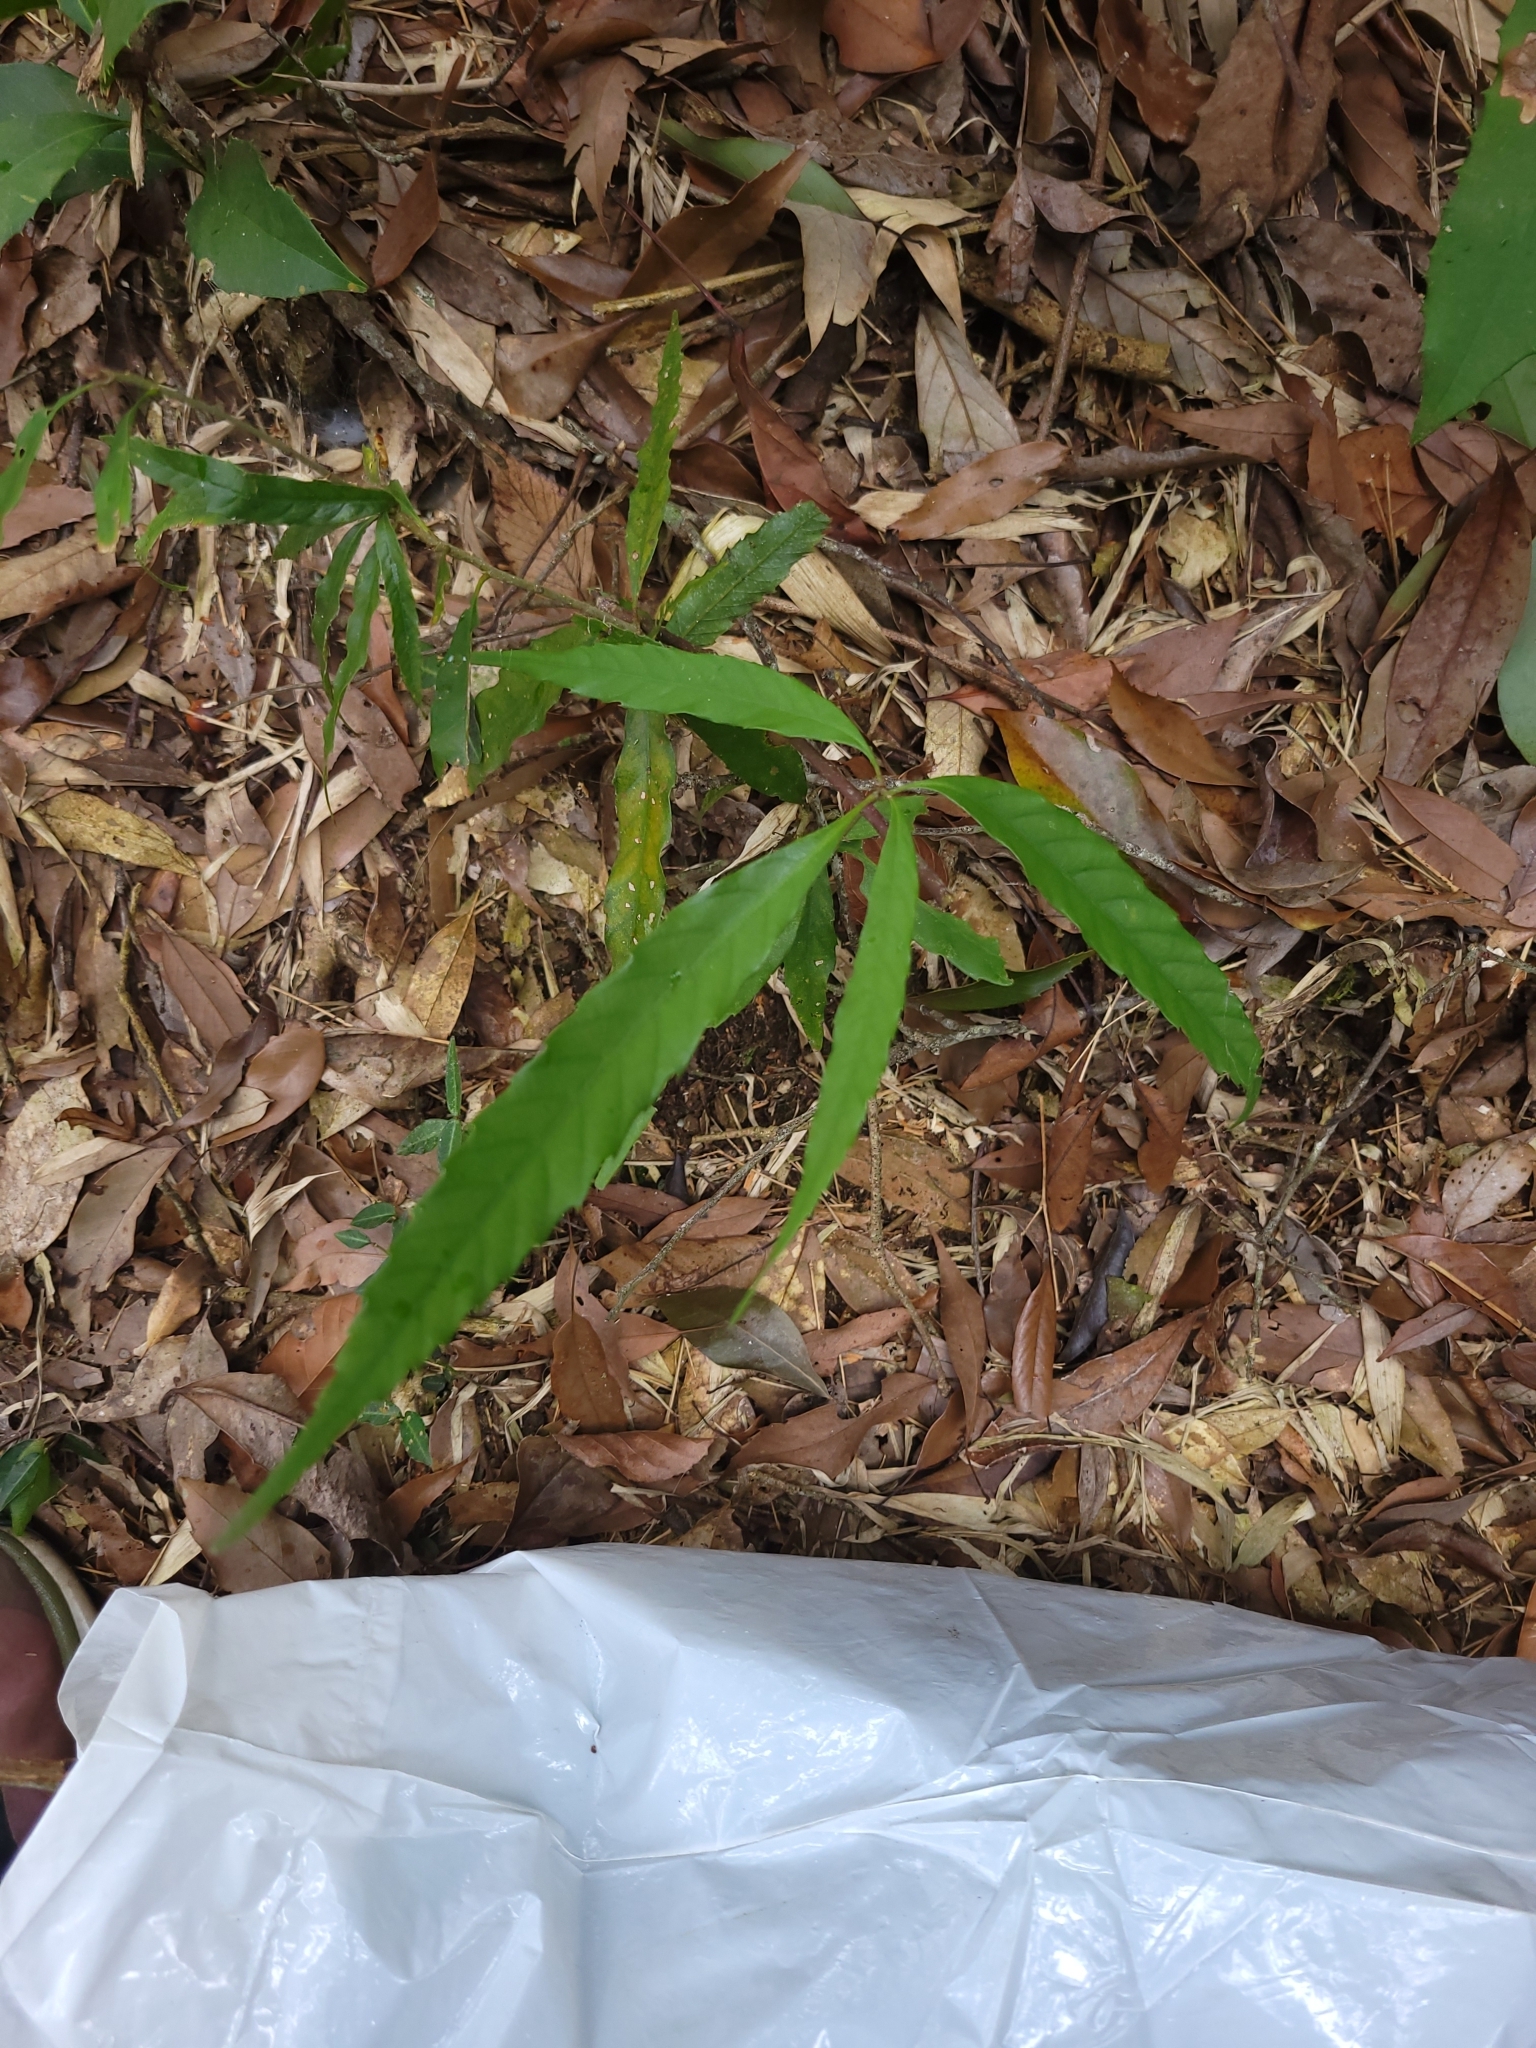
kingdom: Plantae
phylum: Tracheophyta
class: Magnoliopsida
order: Fagales
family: Fagaceae
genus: Quercus
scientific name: Quercus stenophylloides
